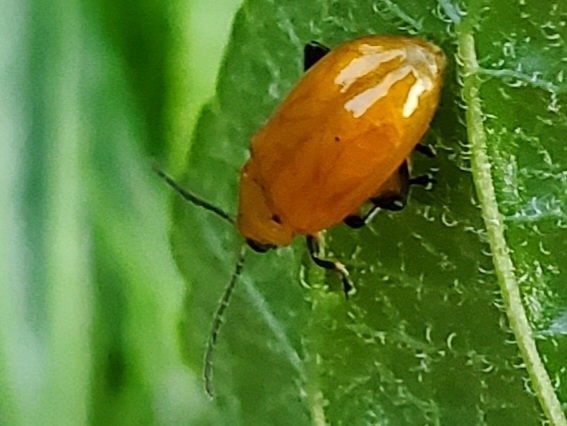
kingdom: Animalia
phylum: Arthropoda
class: Insecta
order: Coleoptera
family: Chrysomelidae
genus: Parchicola
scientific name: Parchicola tibialis
